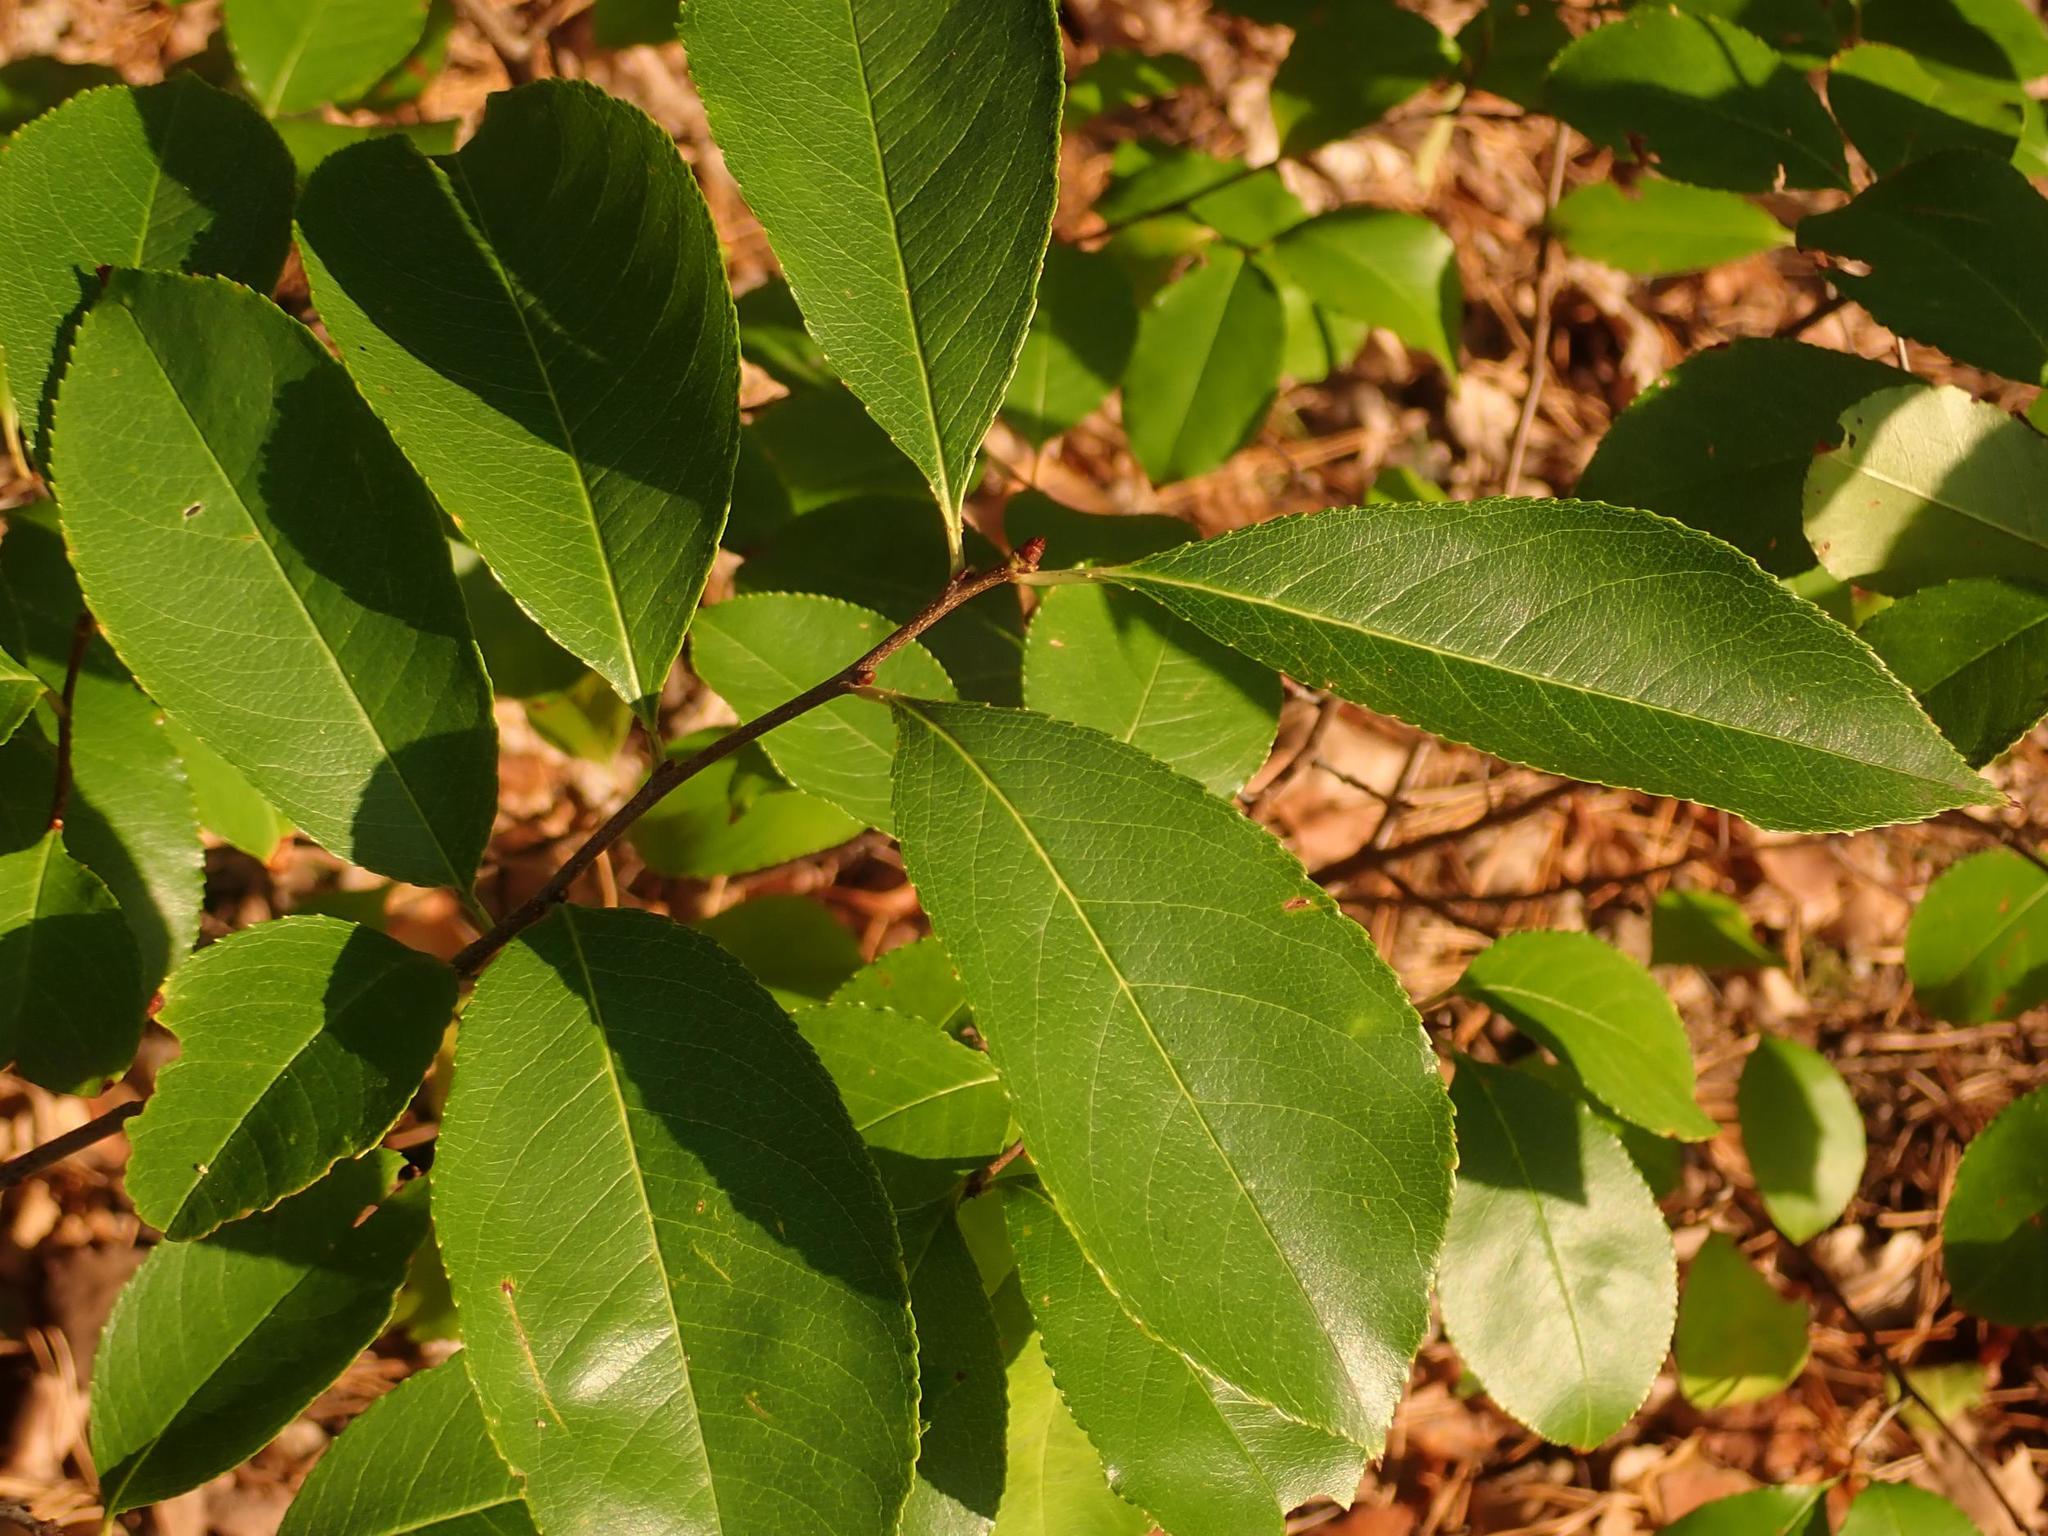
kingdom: Plantae
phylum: Tracheophyta
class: Magnoliopsida
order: Rosales
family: Rosaceae
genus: Prunus
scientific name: Prunus serotina
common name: Black cherry
